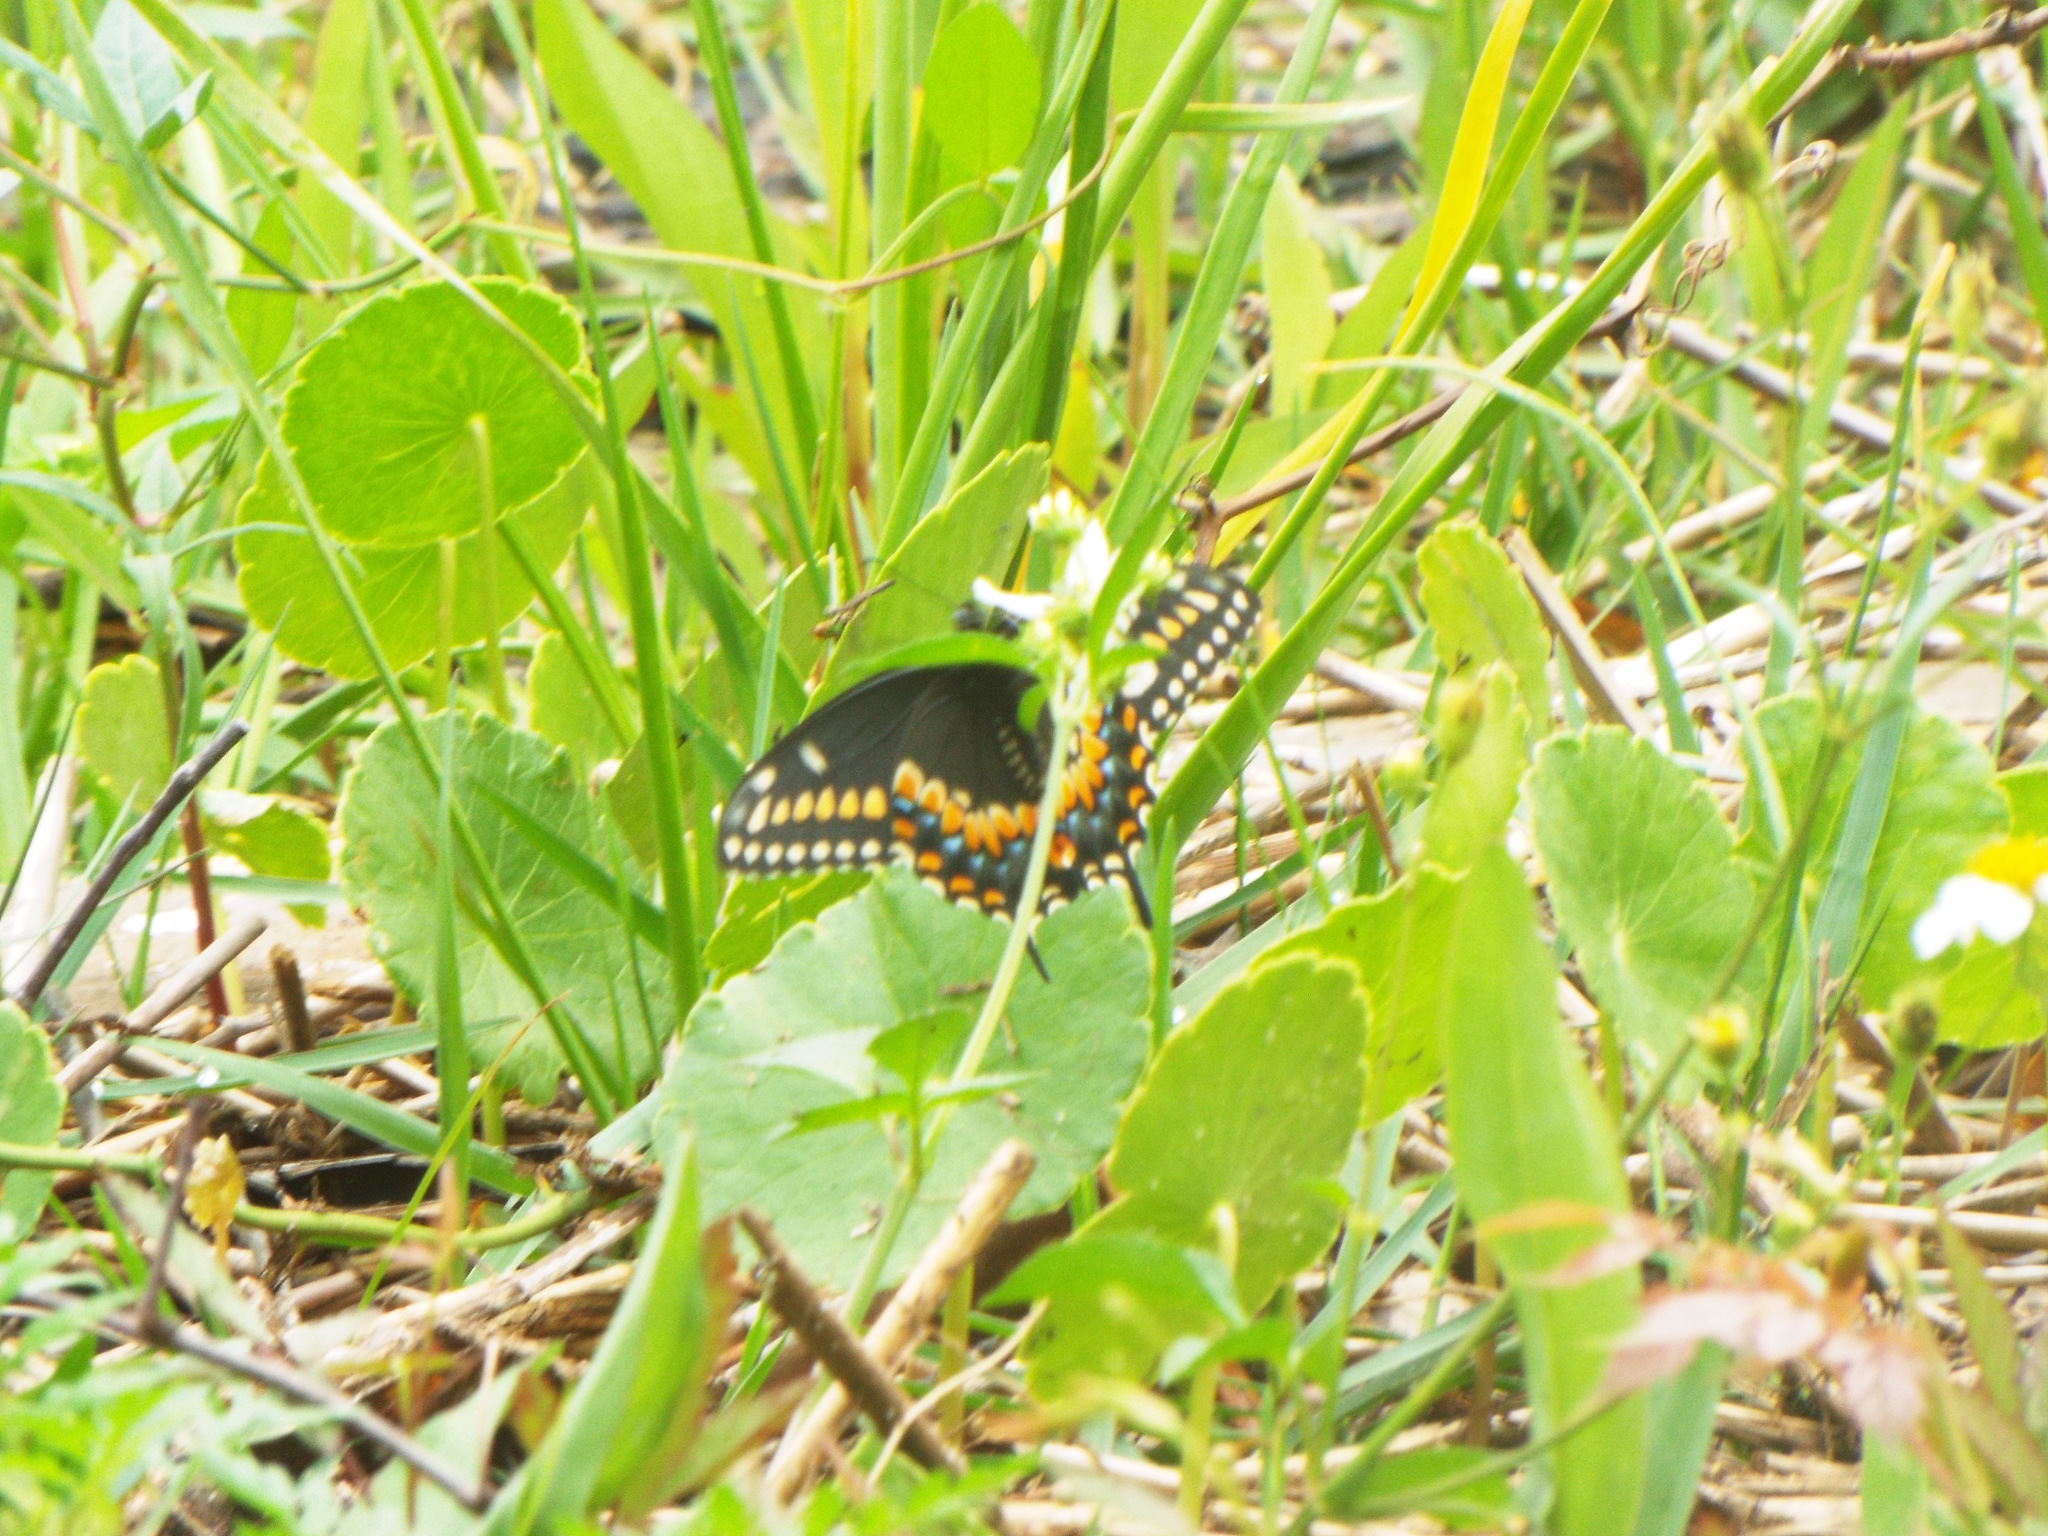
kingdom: Animalia
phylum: Arthropoda
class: Insecta
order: Lepidoptera
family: Papilionidae
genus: Papilio
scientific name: Papilio polyxenes
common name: Black swallowtail
